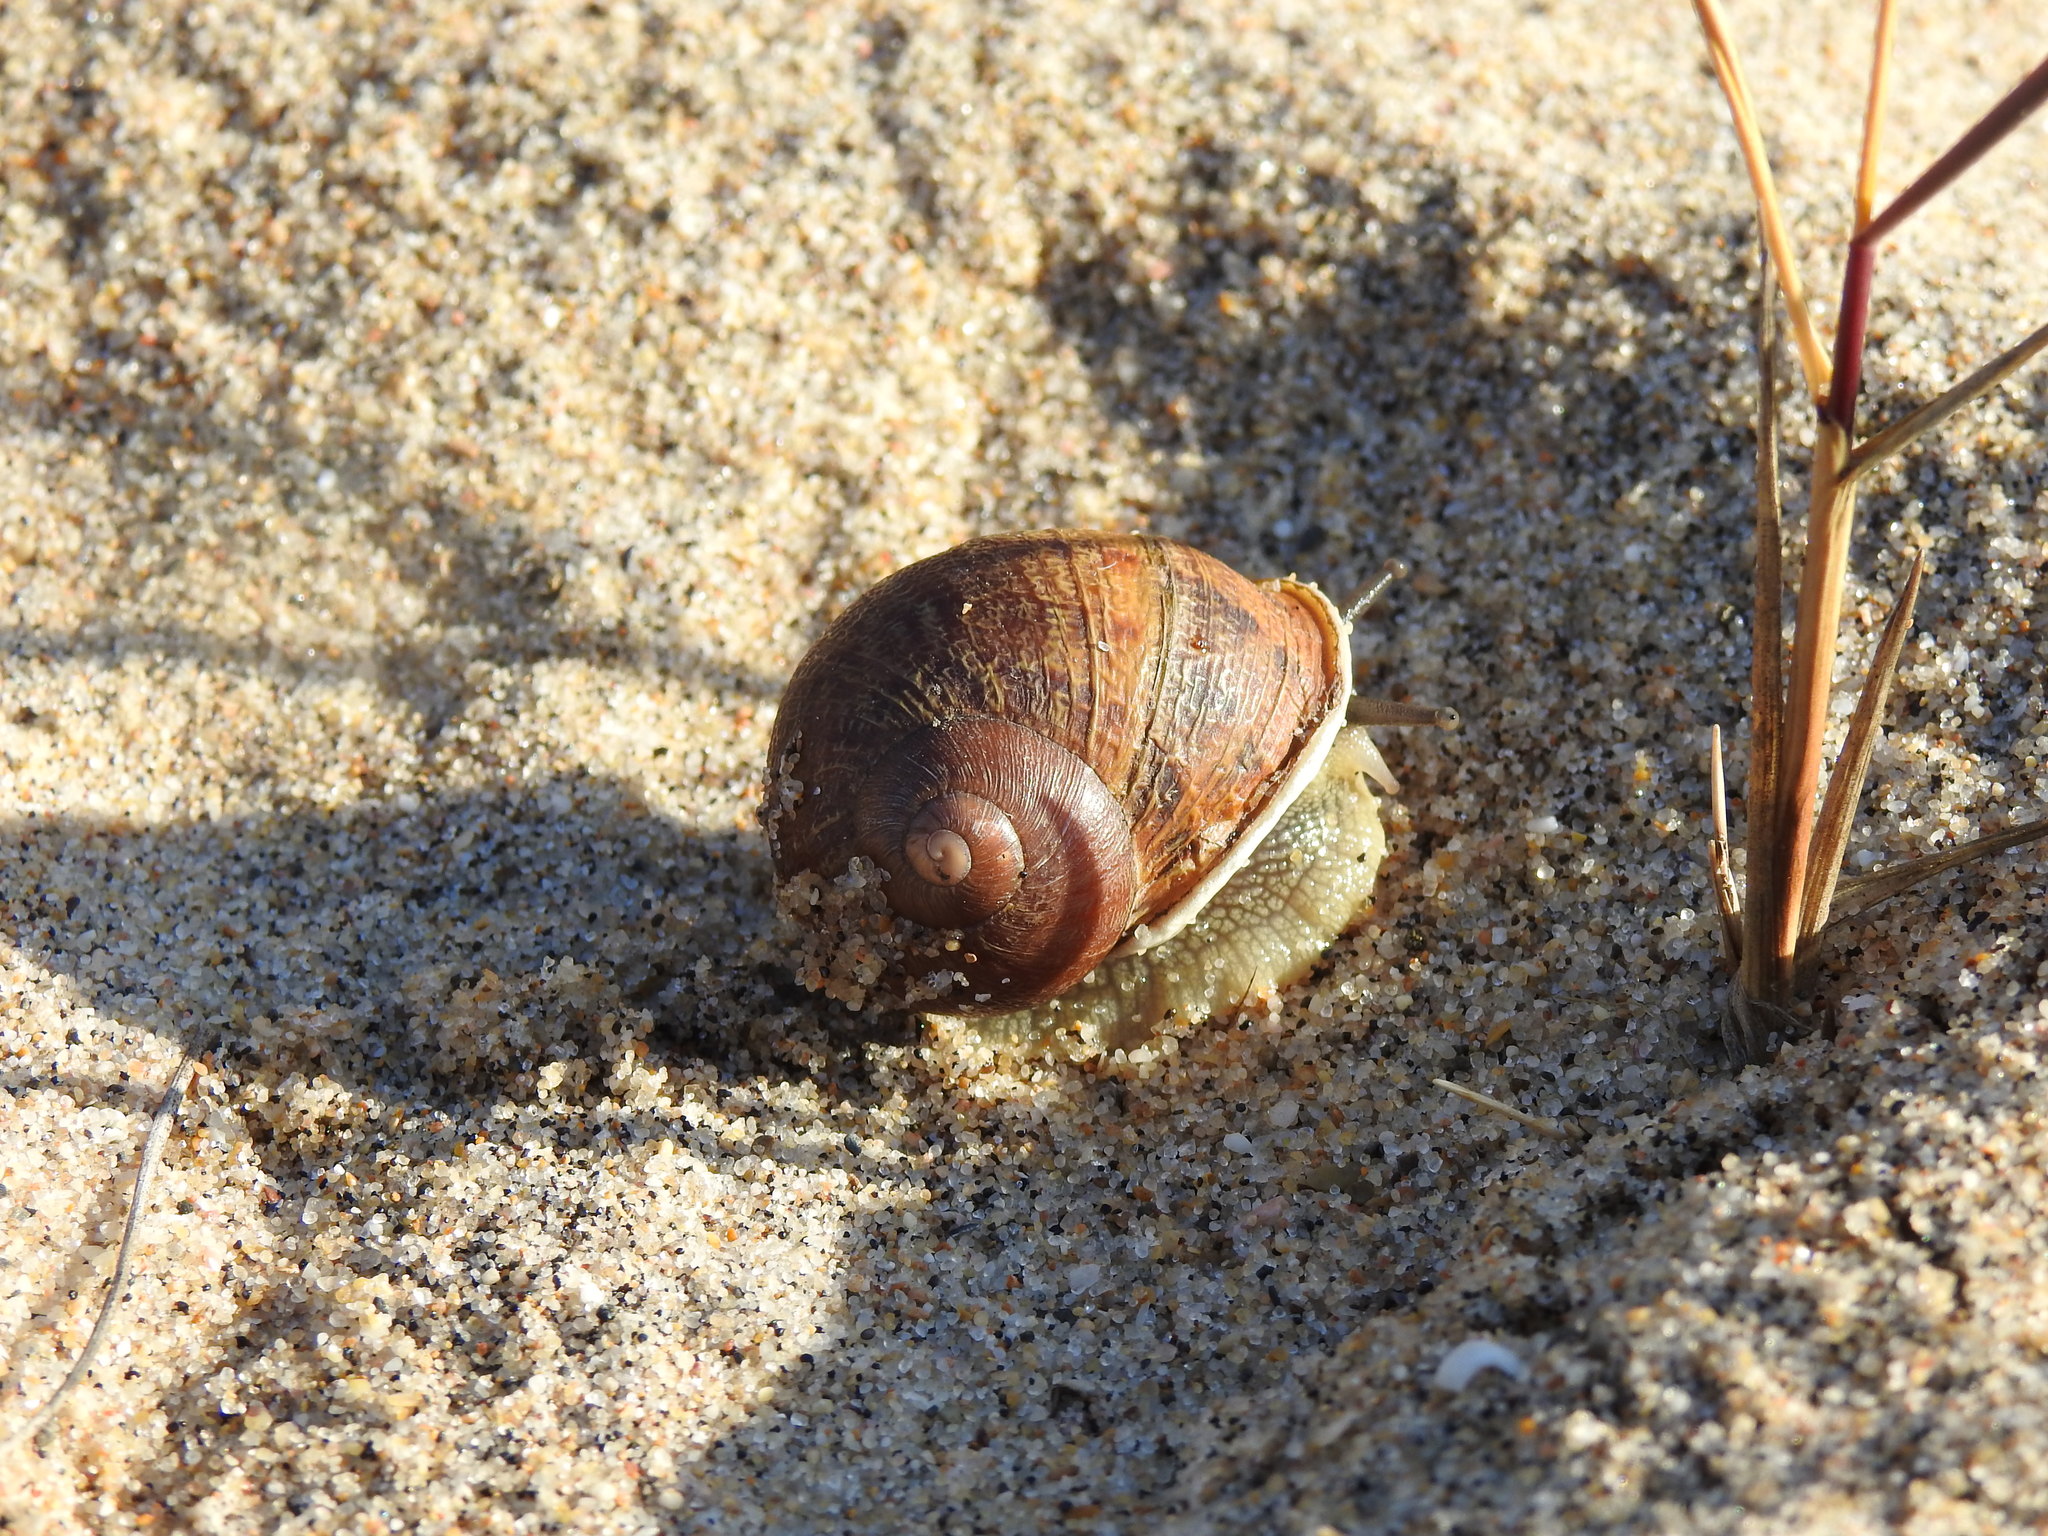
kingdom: Animalia
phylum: Mollusca
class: Gastropoda
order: Stylommatophora
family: Helicidae
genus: Cornu
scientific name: Cornu aspersum
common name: Brown garden snail
